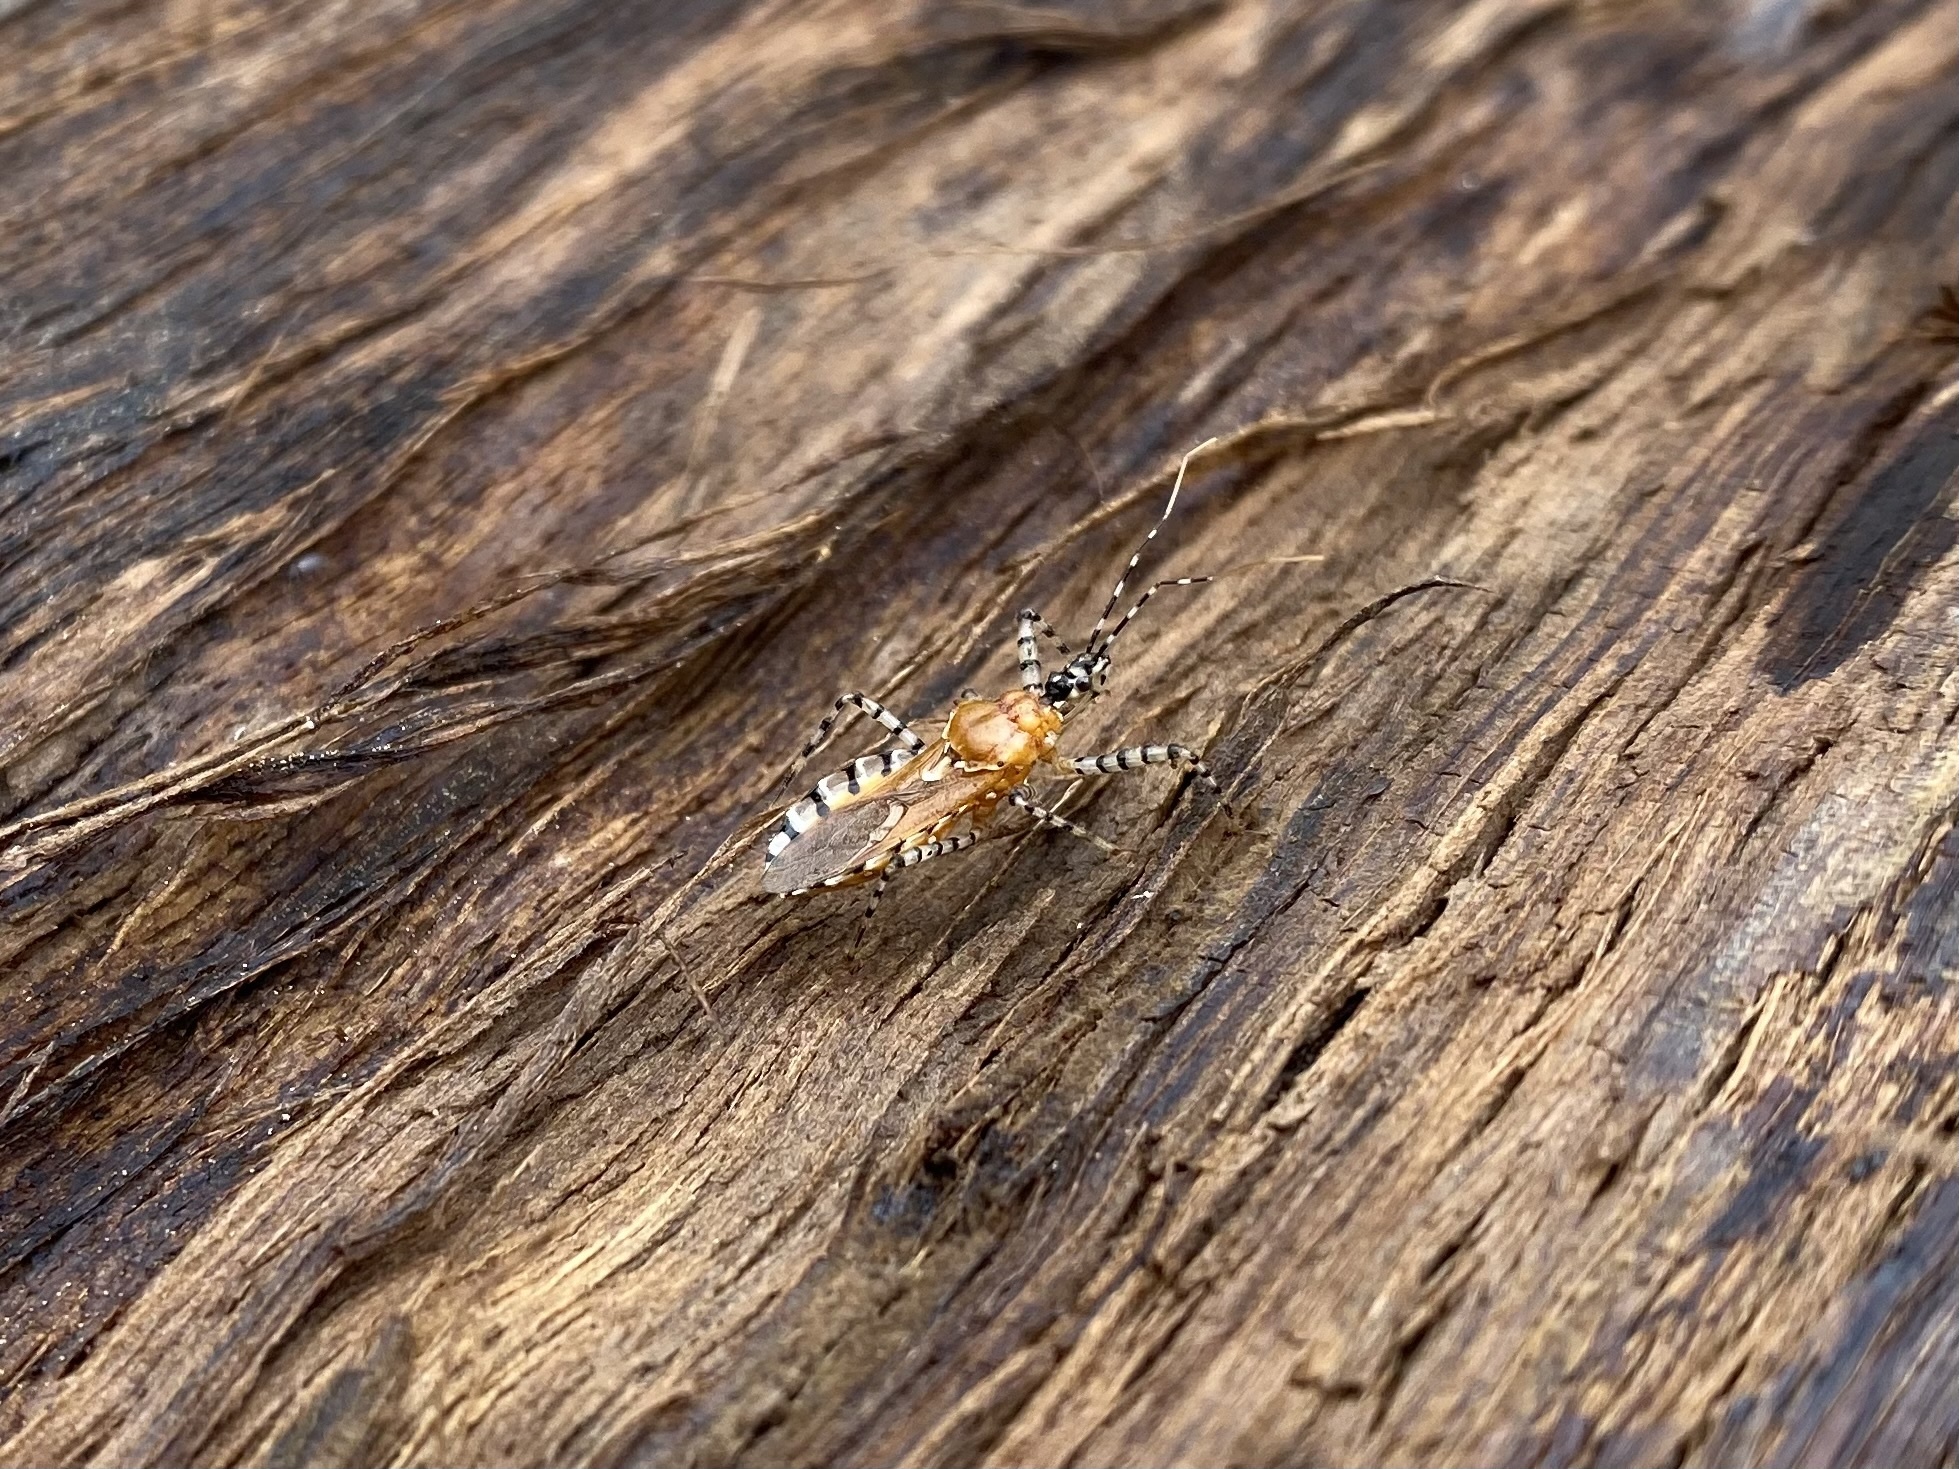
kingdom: Animalia
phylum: Arthropoda
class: Insecta
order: Hemiptera
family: Reduviidae
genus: Pselliopus
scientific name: Pselliopus cinctus
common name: Ringed assassin bug
